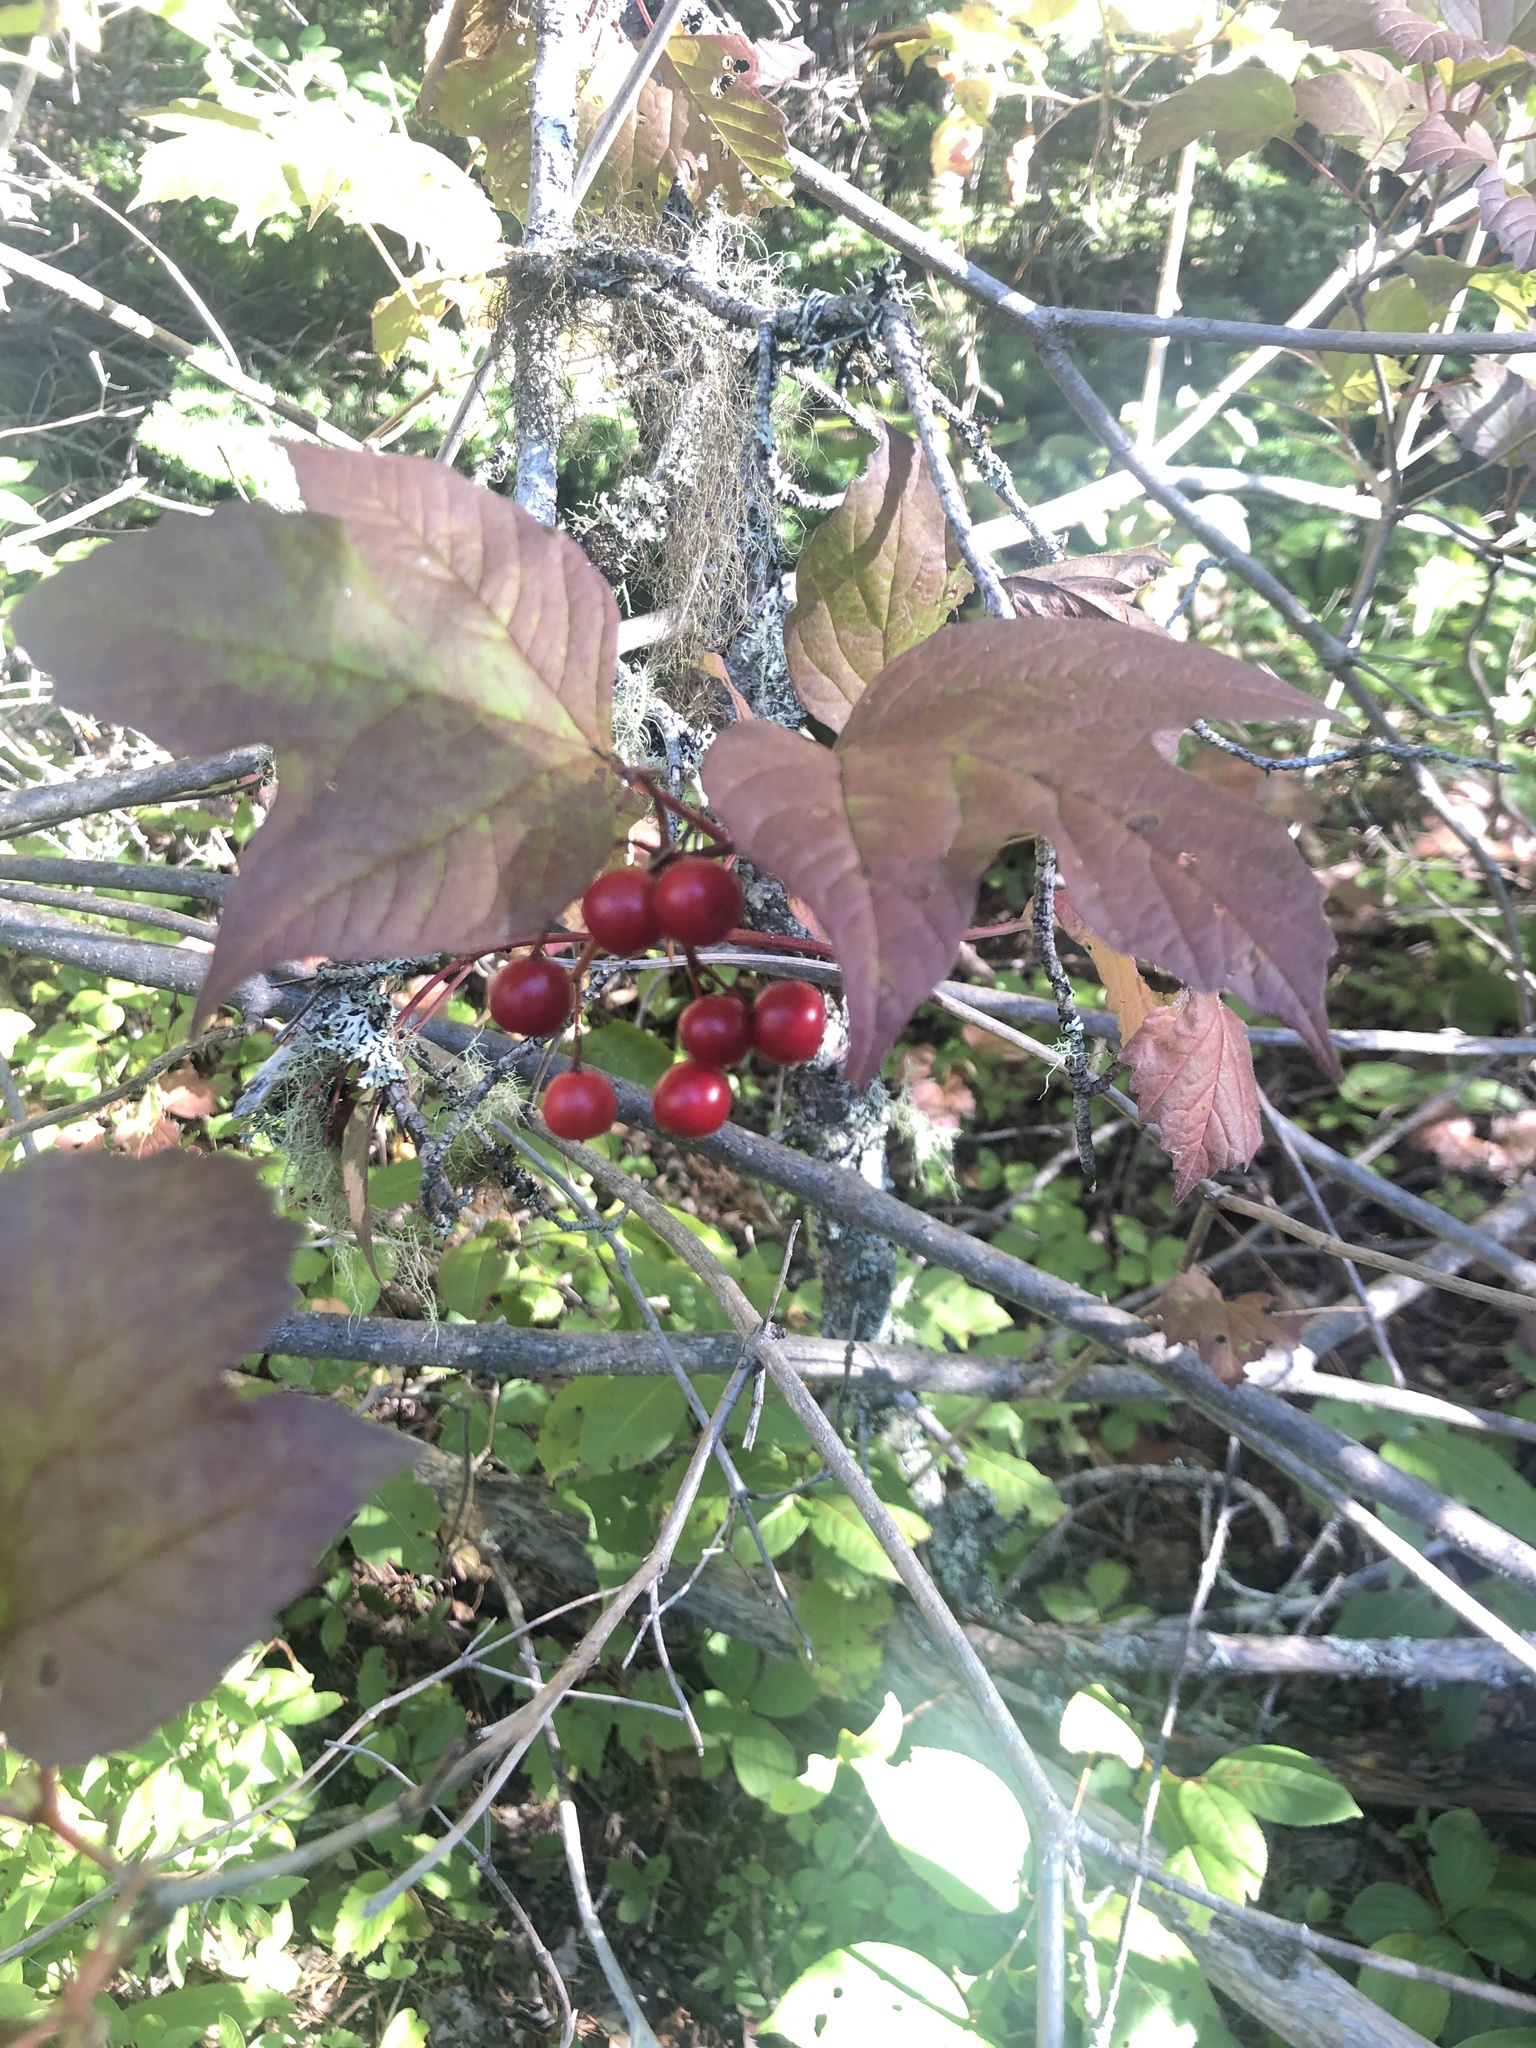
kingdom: Plantae
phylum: Tracheophyta
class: Magnoliopsida
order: Dipsacales
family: Viburnaceae
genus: Viburnum
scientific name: Viburnum opulus
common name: Guelder-rose
